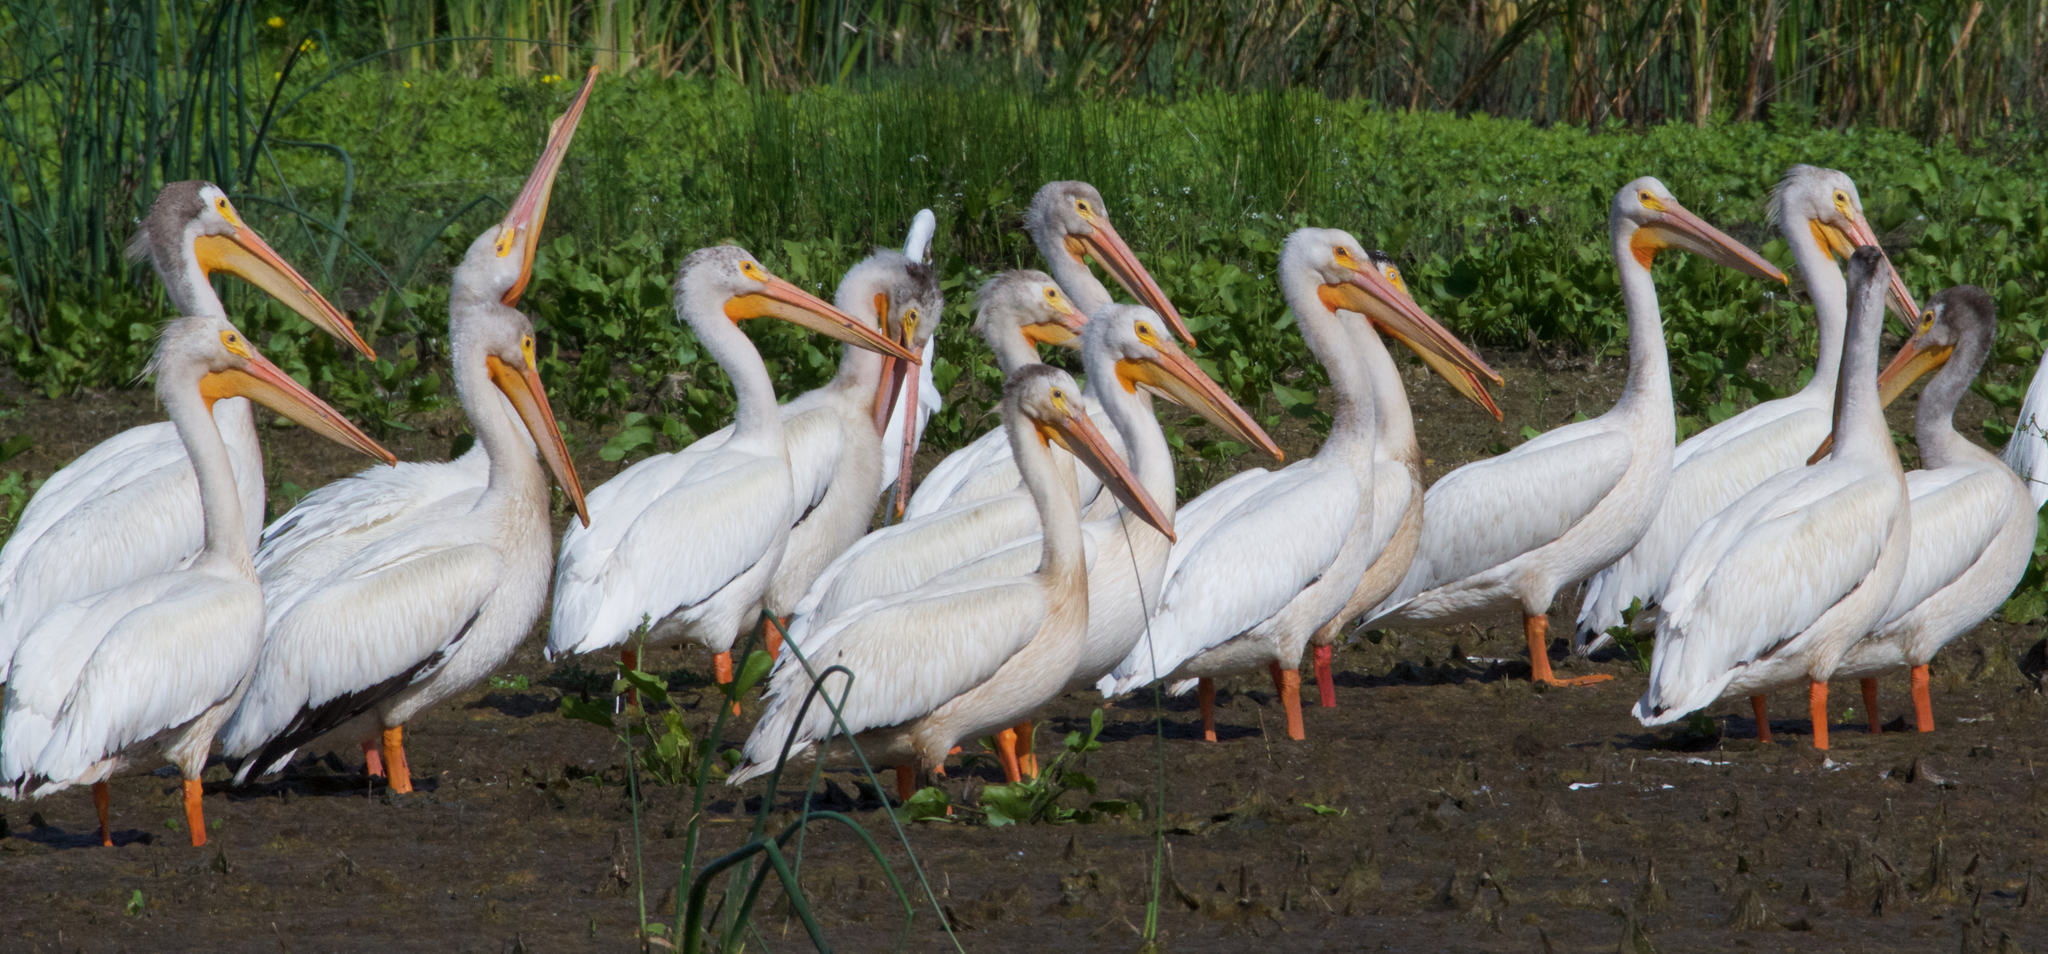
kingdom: Animalia
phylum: Chordata
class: Aves
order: Pelecaniformes
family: Pelecanidae
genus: Pelecanus
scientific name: Pelecanus erythrorhynchos
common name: American white pelican
